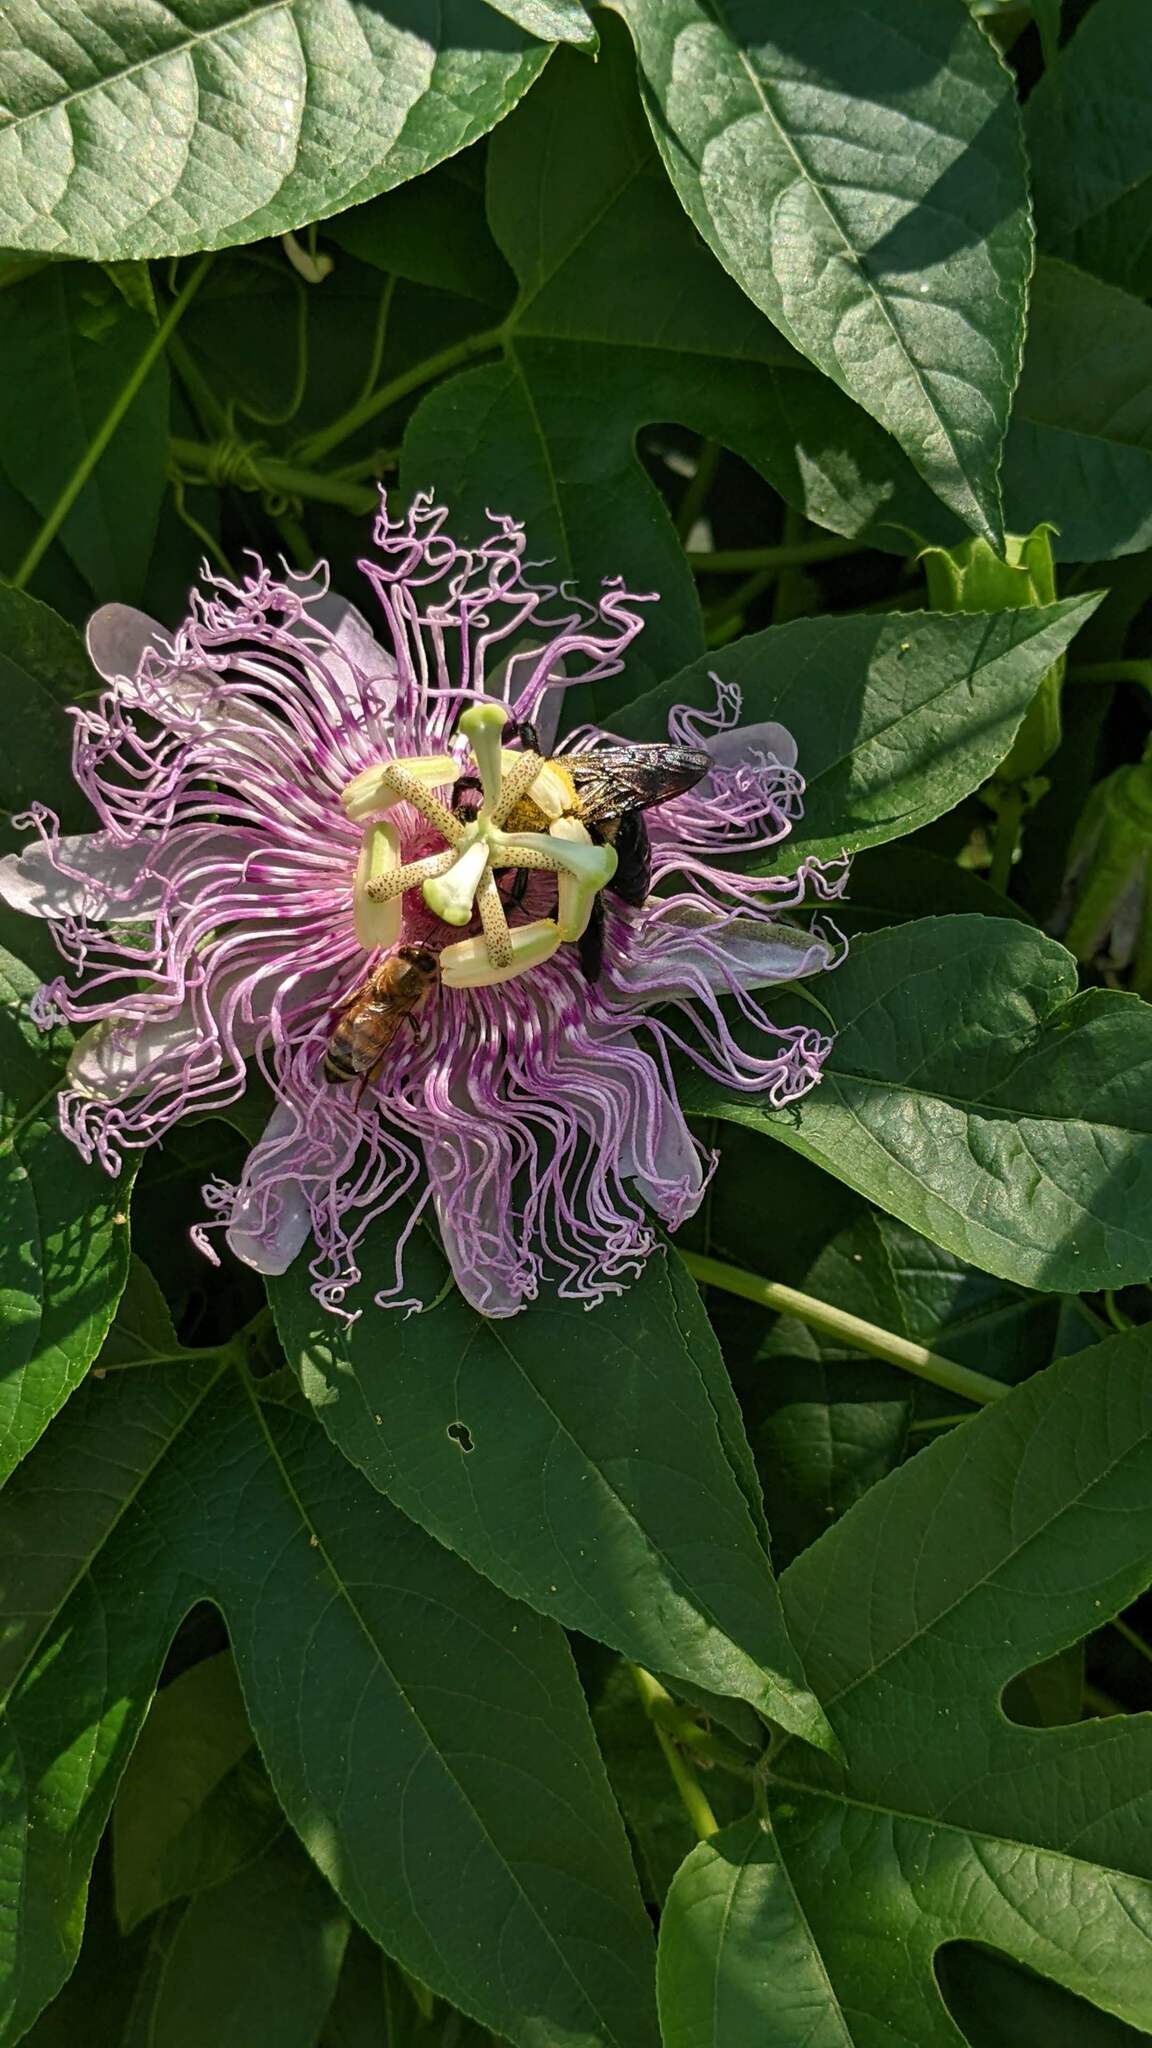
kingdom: Animalia
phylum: Arthropoda
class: Insecta
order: Hymenoptera
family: Apidae
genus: Xylocopa
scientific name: Xylocopa virginica
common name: Carpenter bee
